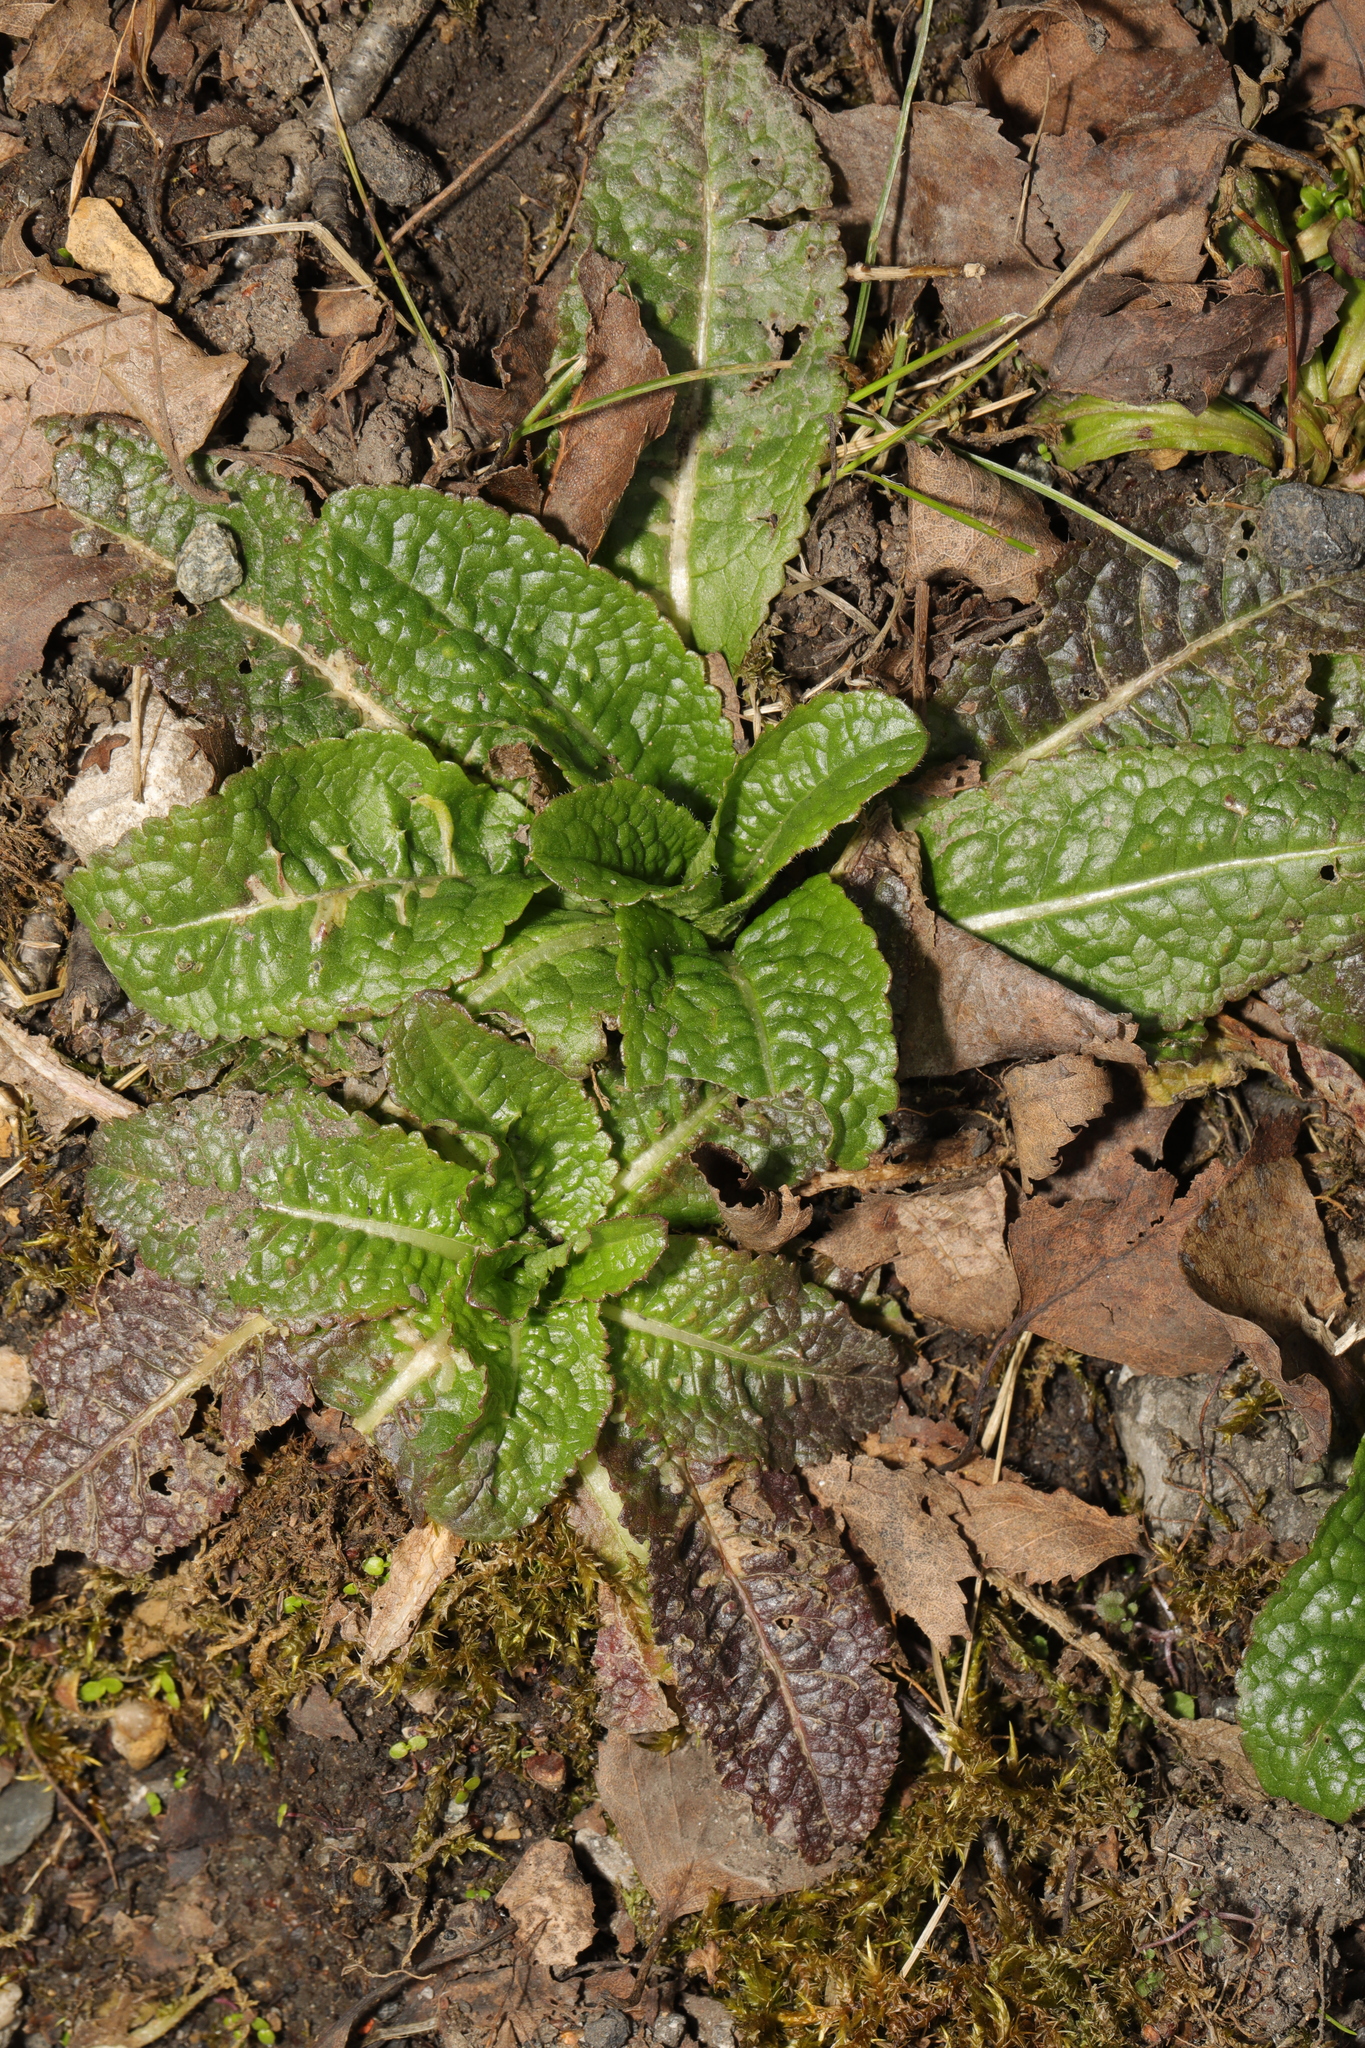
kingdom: Plantae
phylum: Tracheophyta
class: Magnoliopsida
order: Dipsacales
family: Caprifoliaceae
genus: Dipsacus
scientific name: Dipsacus fullonum
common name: Teasel
